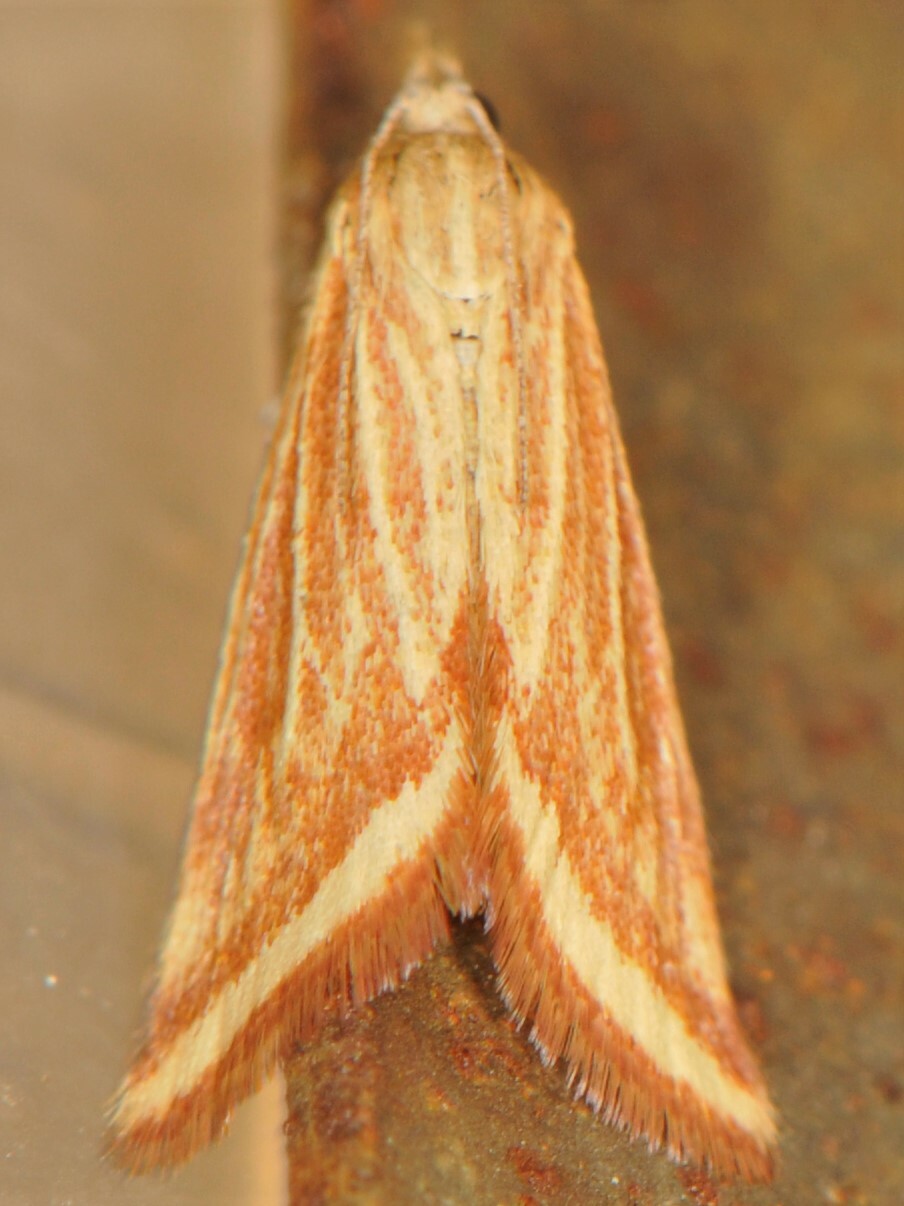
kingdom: Animalia
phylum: Arthropoda
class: Insecta
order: Lepidoptera
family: Crambidae
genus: Microtheoris
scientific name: Microtheoris ophionalis
